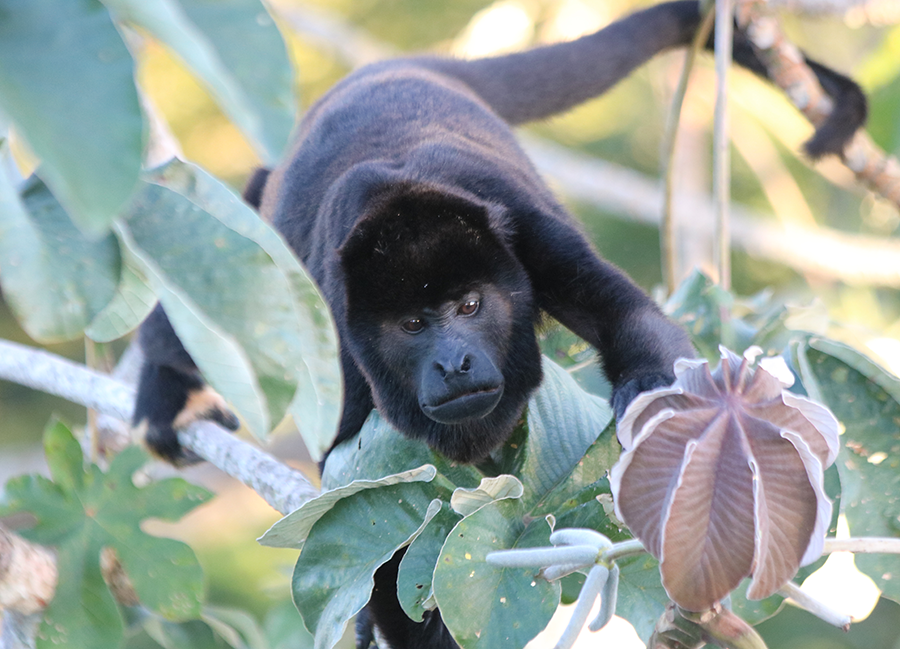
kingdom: Animalia
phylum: Chordata
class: Mammalia
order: Primates
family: Atelidae
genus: Alouatta
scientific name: Alouatta palliata
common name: Mantled howler
